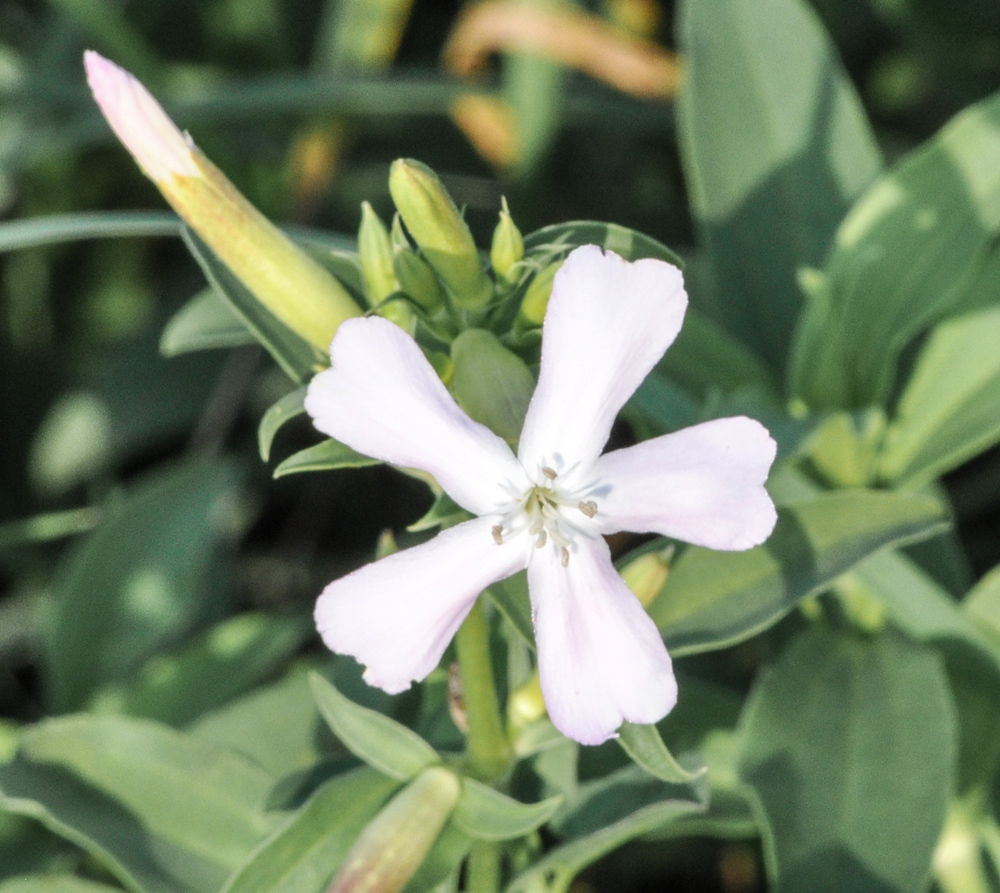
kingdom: Plantae
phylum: Tracheophyta
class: Magnoliopsida
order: Caryophyllales
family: Caryophyllaceae
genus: Saponaria
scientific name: Saponaria officinalis
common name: Soapwort
